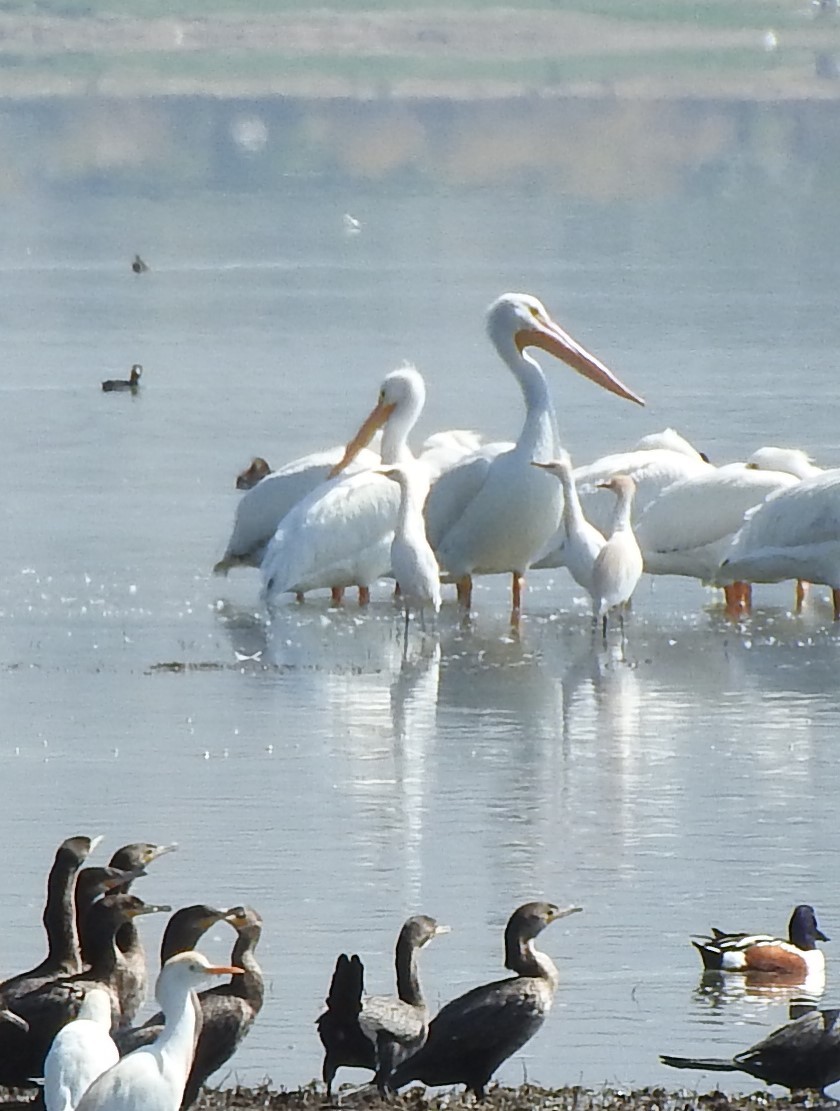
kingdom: Animalia
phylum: Chordata
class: Aves
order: Pelecaniformes
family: Pelecanidae
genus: Pelecanus
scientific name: Pelecanus erythrorhynchos
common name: American white pelican
